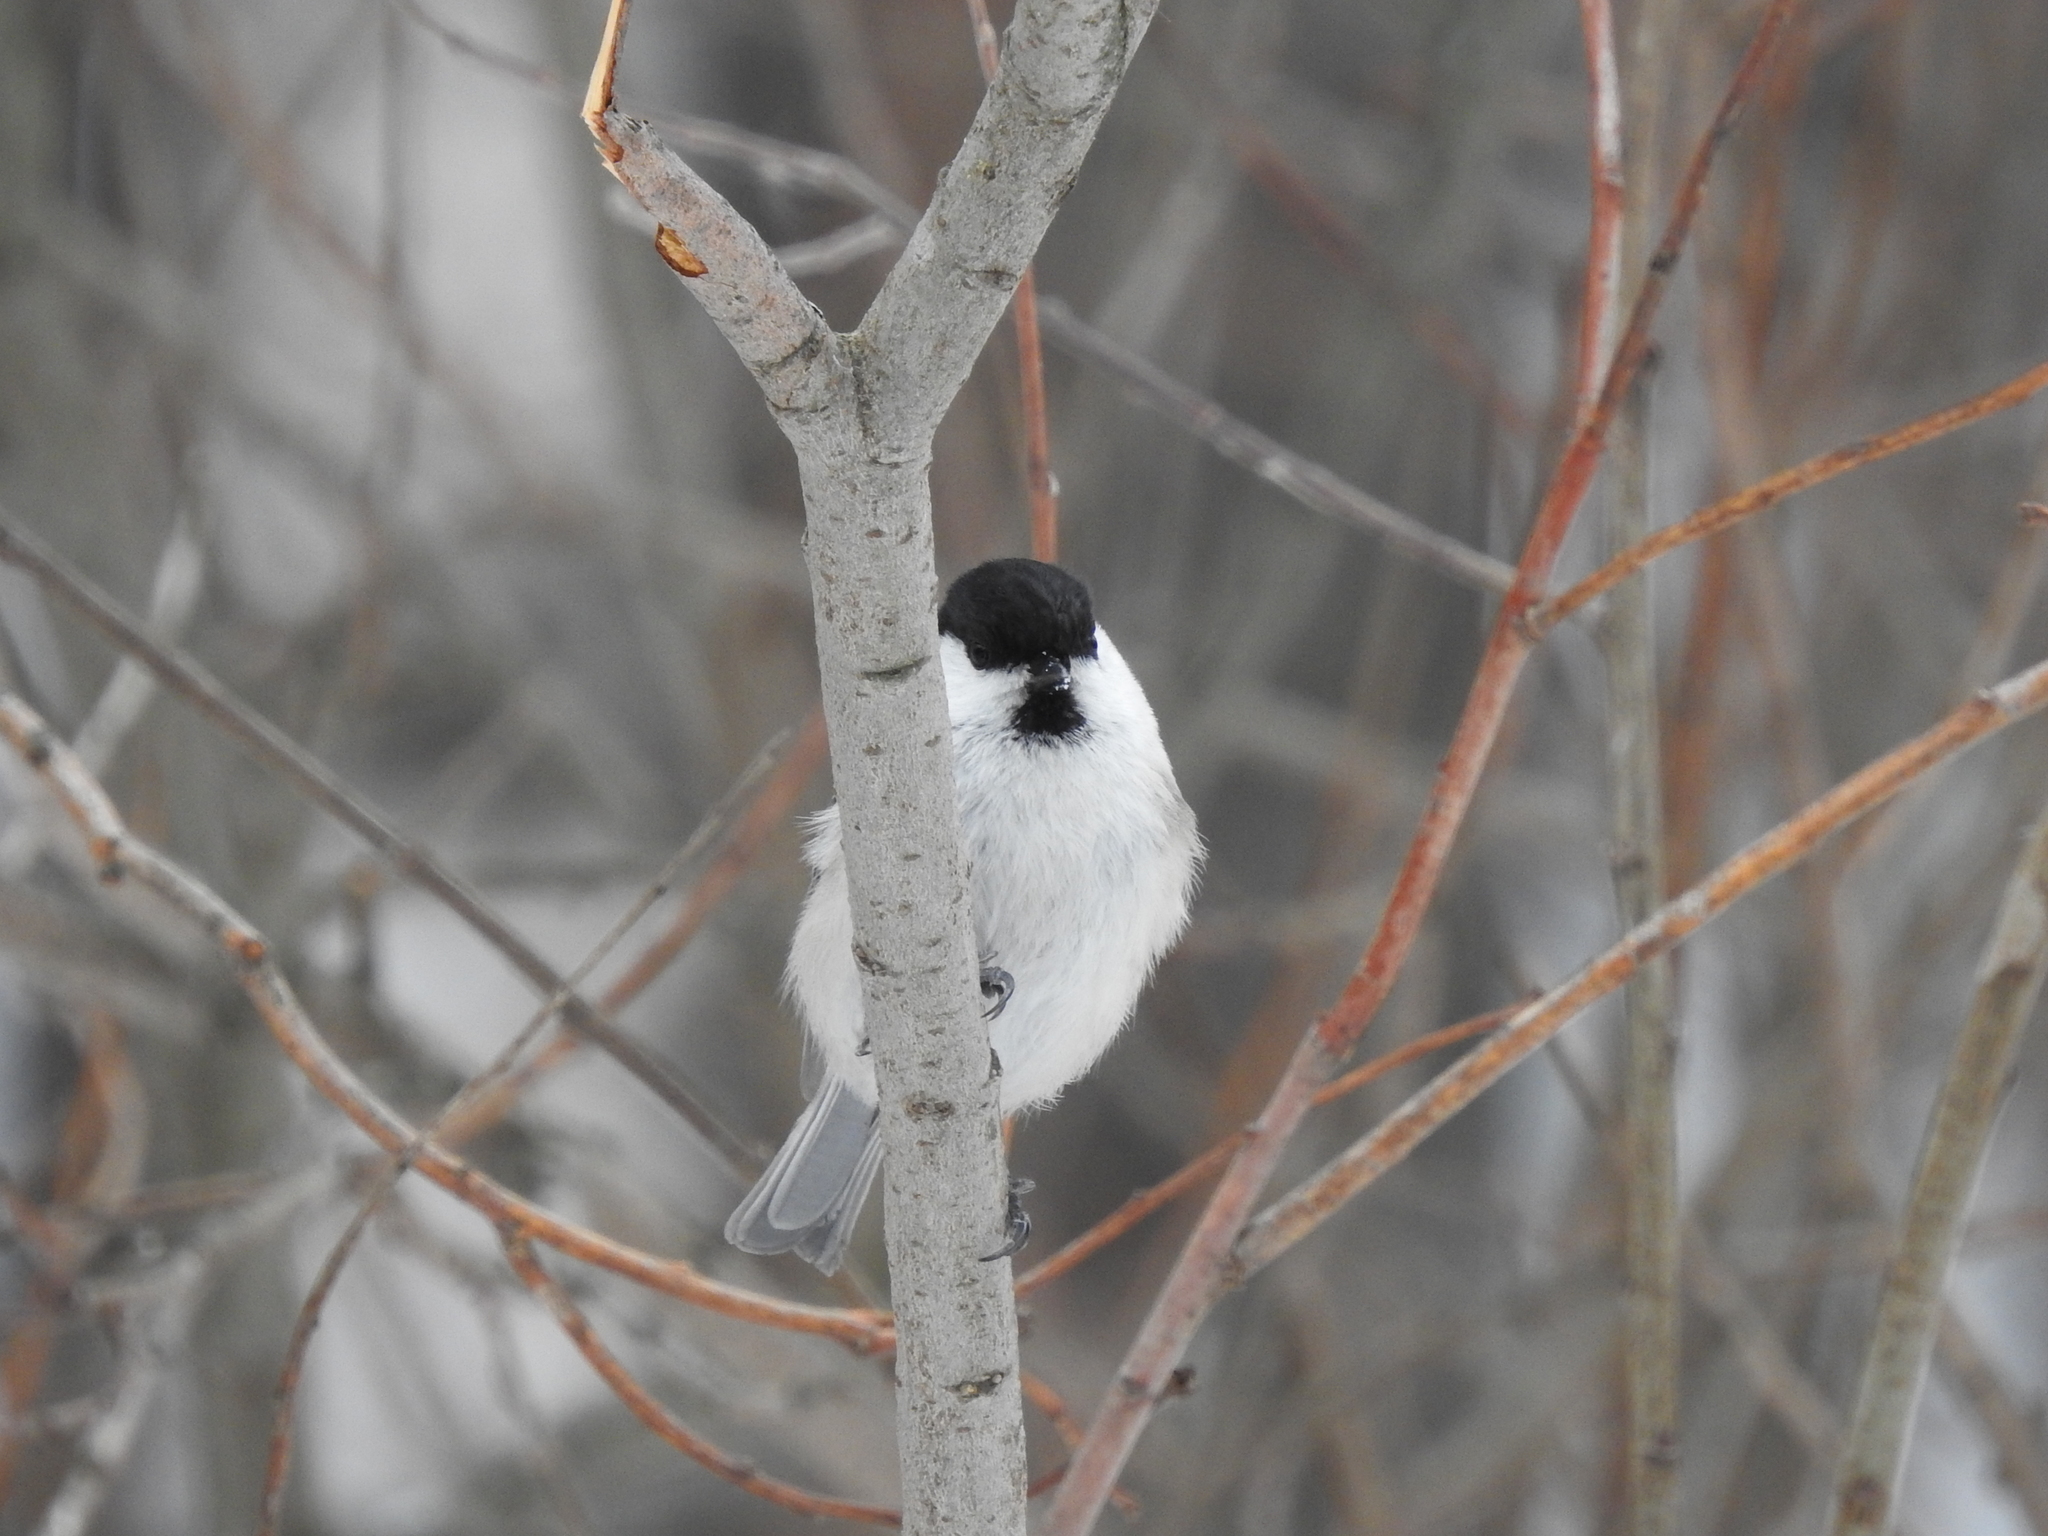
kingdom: Animalia
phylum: Chordata
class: Aves
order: Passeriformes
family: Paridae
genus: Poecile
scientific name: Poecile montanus
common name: Willow tit
